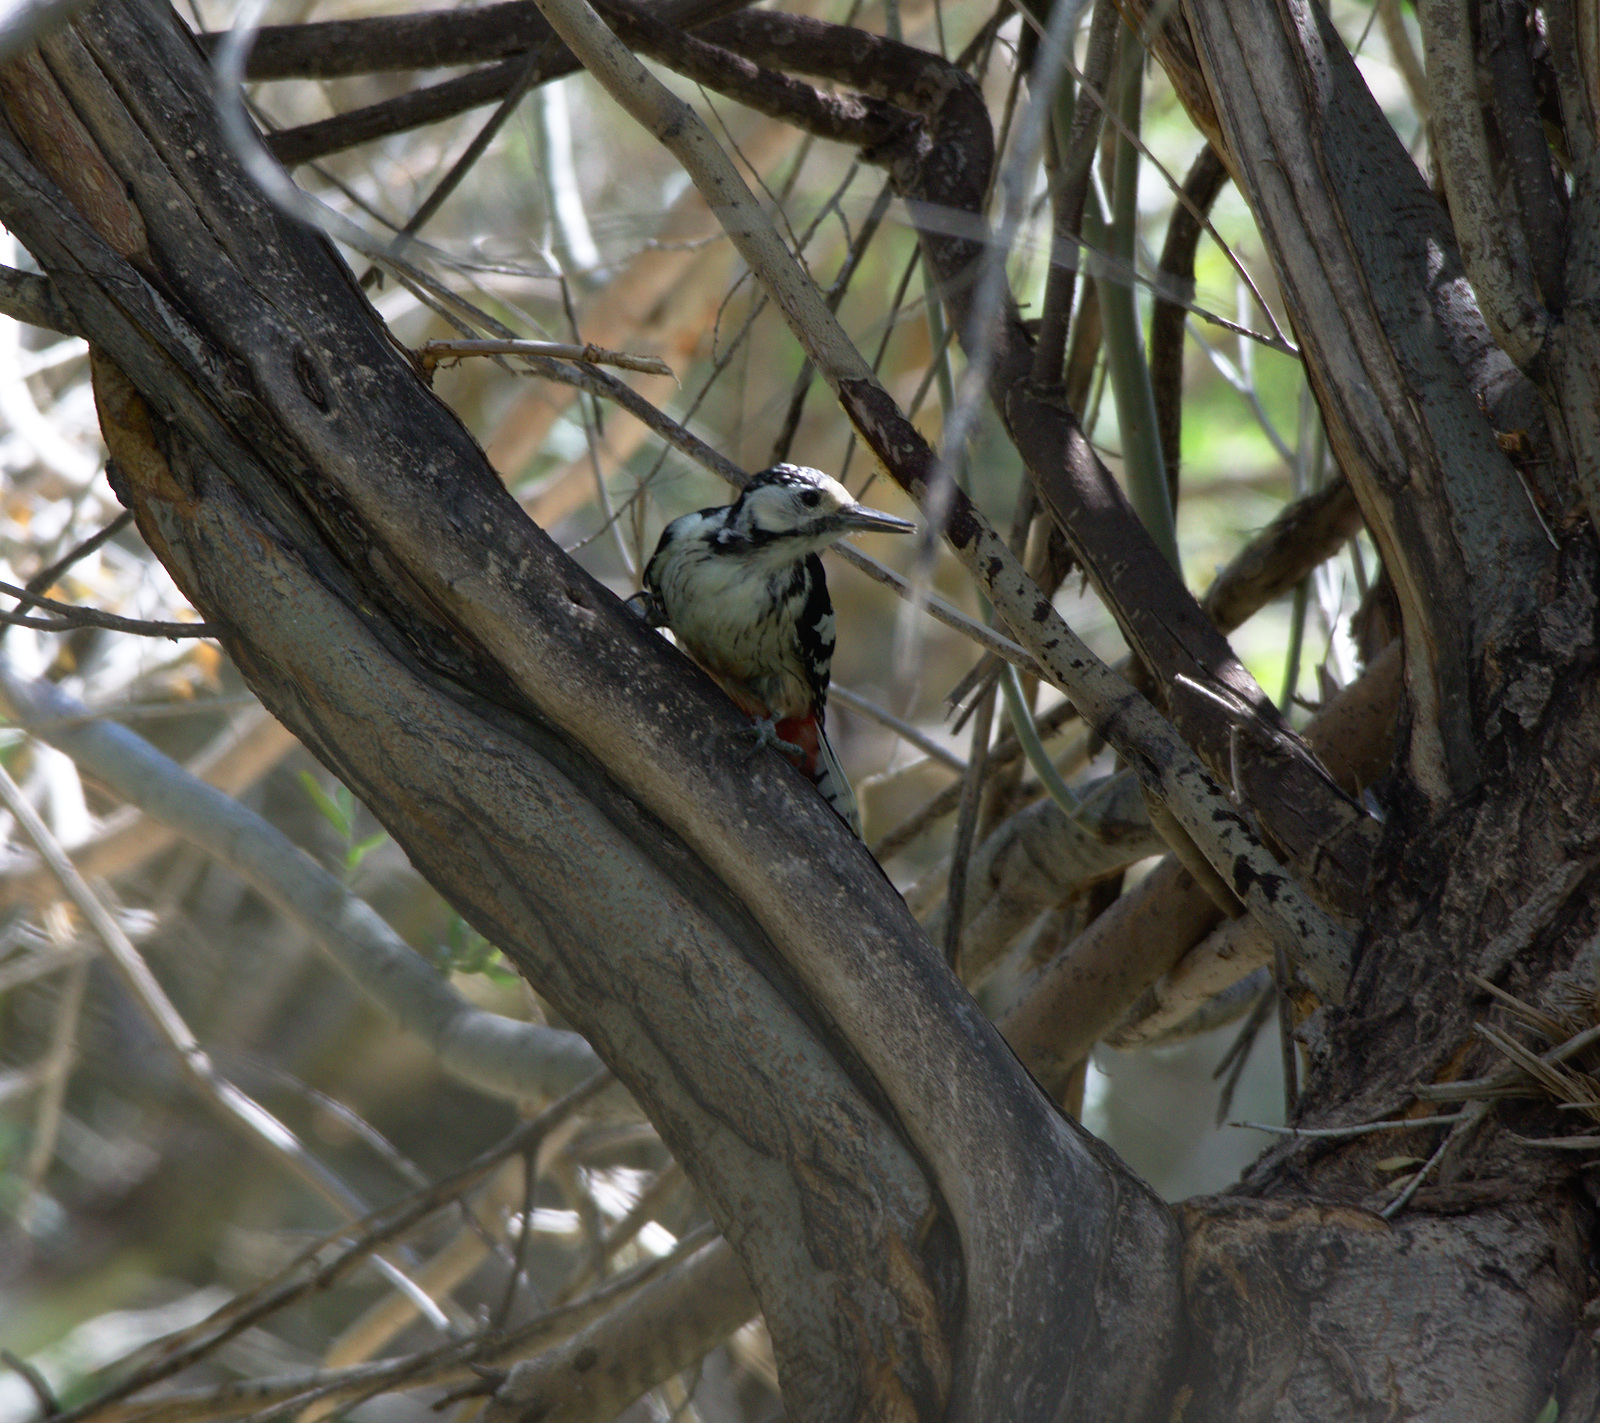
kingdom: Animalia
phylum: Chordata
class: Aves
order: Piciformes
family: Picidae
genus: Dendrocopos
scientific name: Dendrocopos leucotos
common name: White-backed woodpecker
